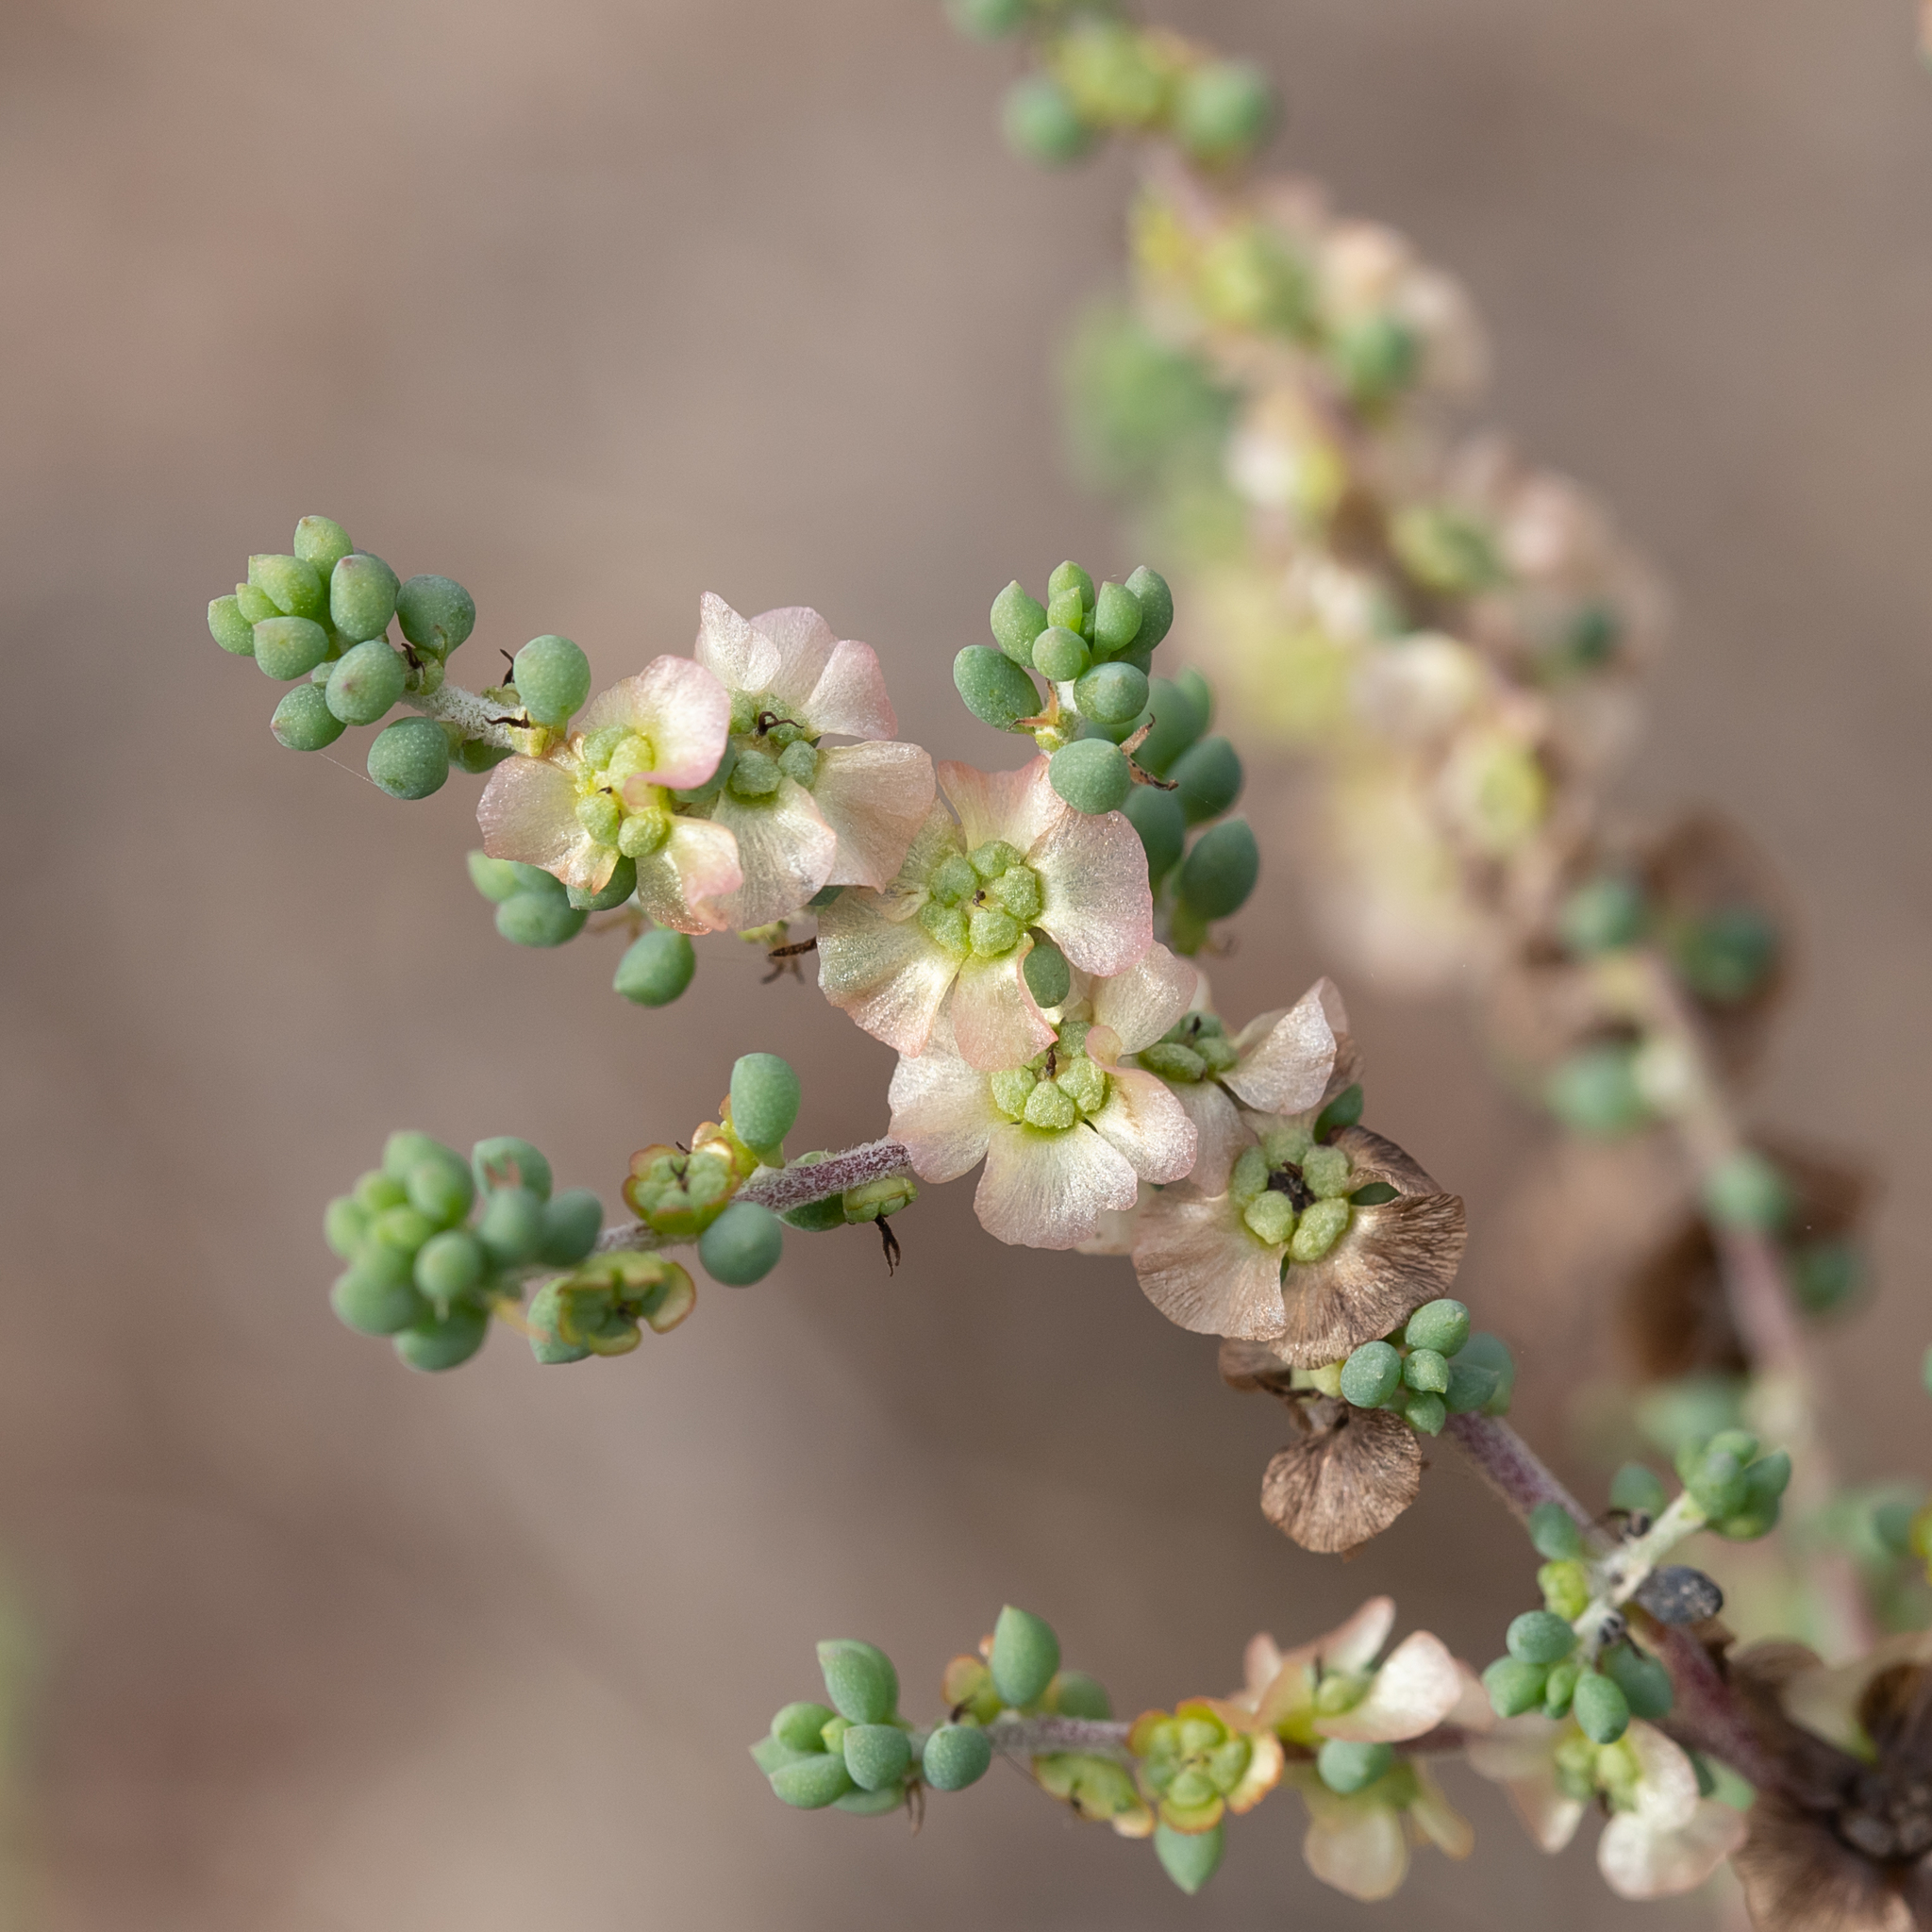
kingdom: Plantae
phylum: Tracheophyta
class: Magnoliopsida
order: Caryophyllales
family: Amaranthaceae
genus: Maireana
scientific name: Maireana brevifolia
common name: Eastern cottonbush
